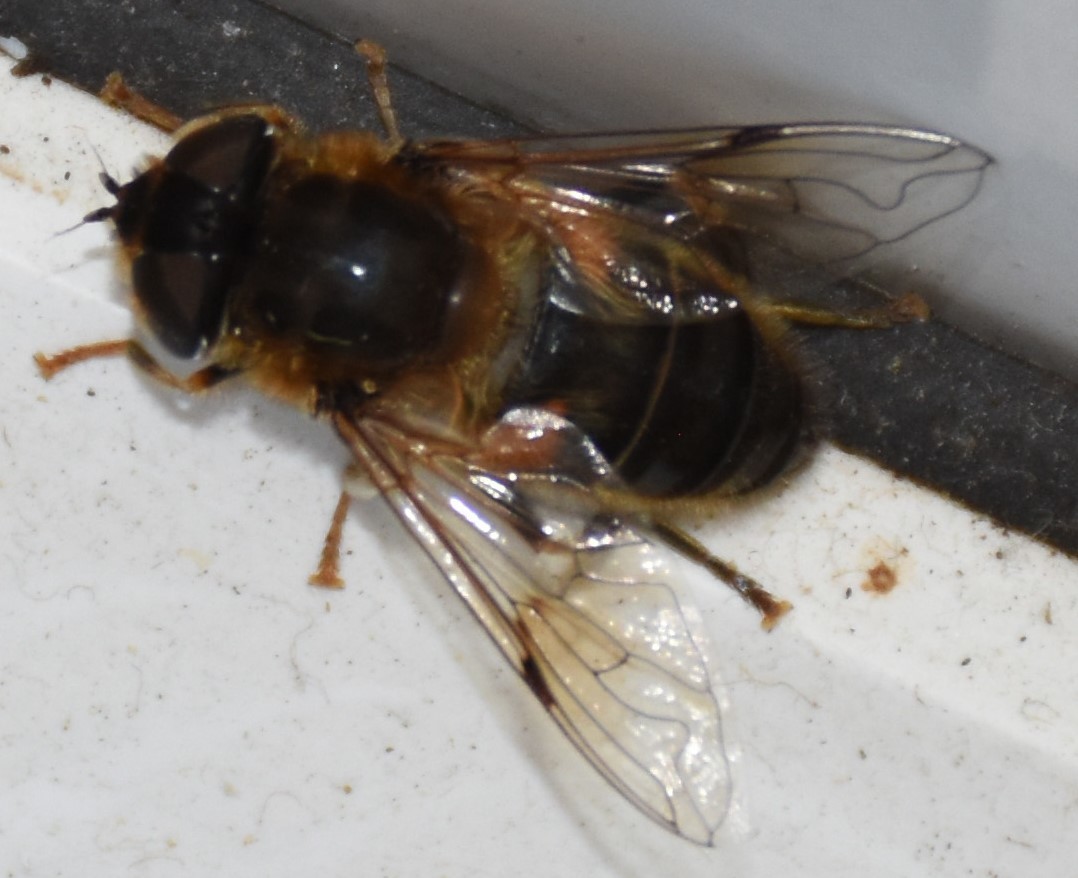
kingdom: Animalia
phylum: Arthropoda
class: Insecta
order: Diptera
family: Syrphidae
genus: Eristalis
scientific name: Eristalis pertinax
